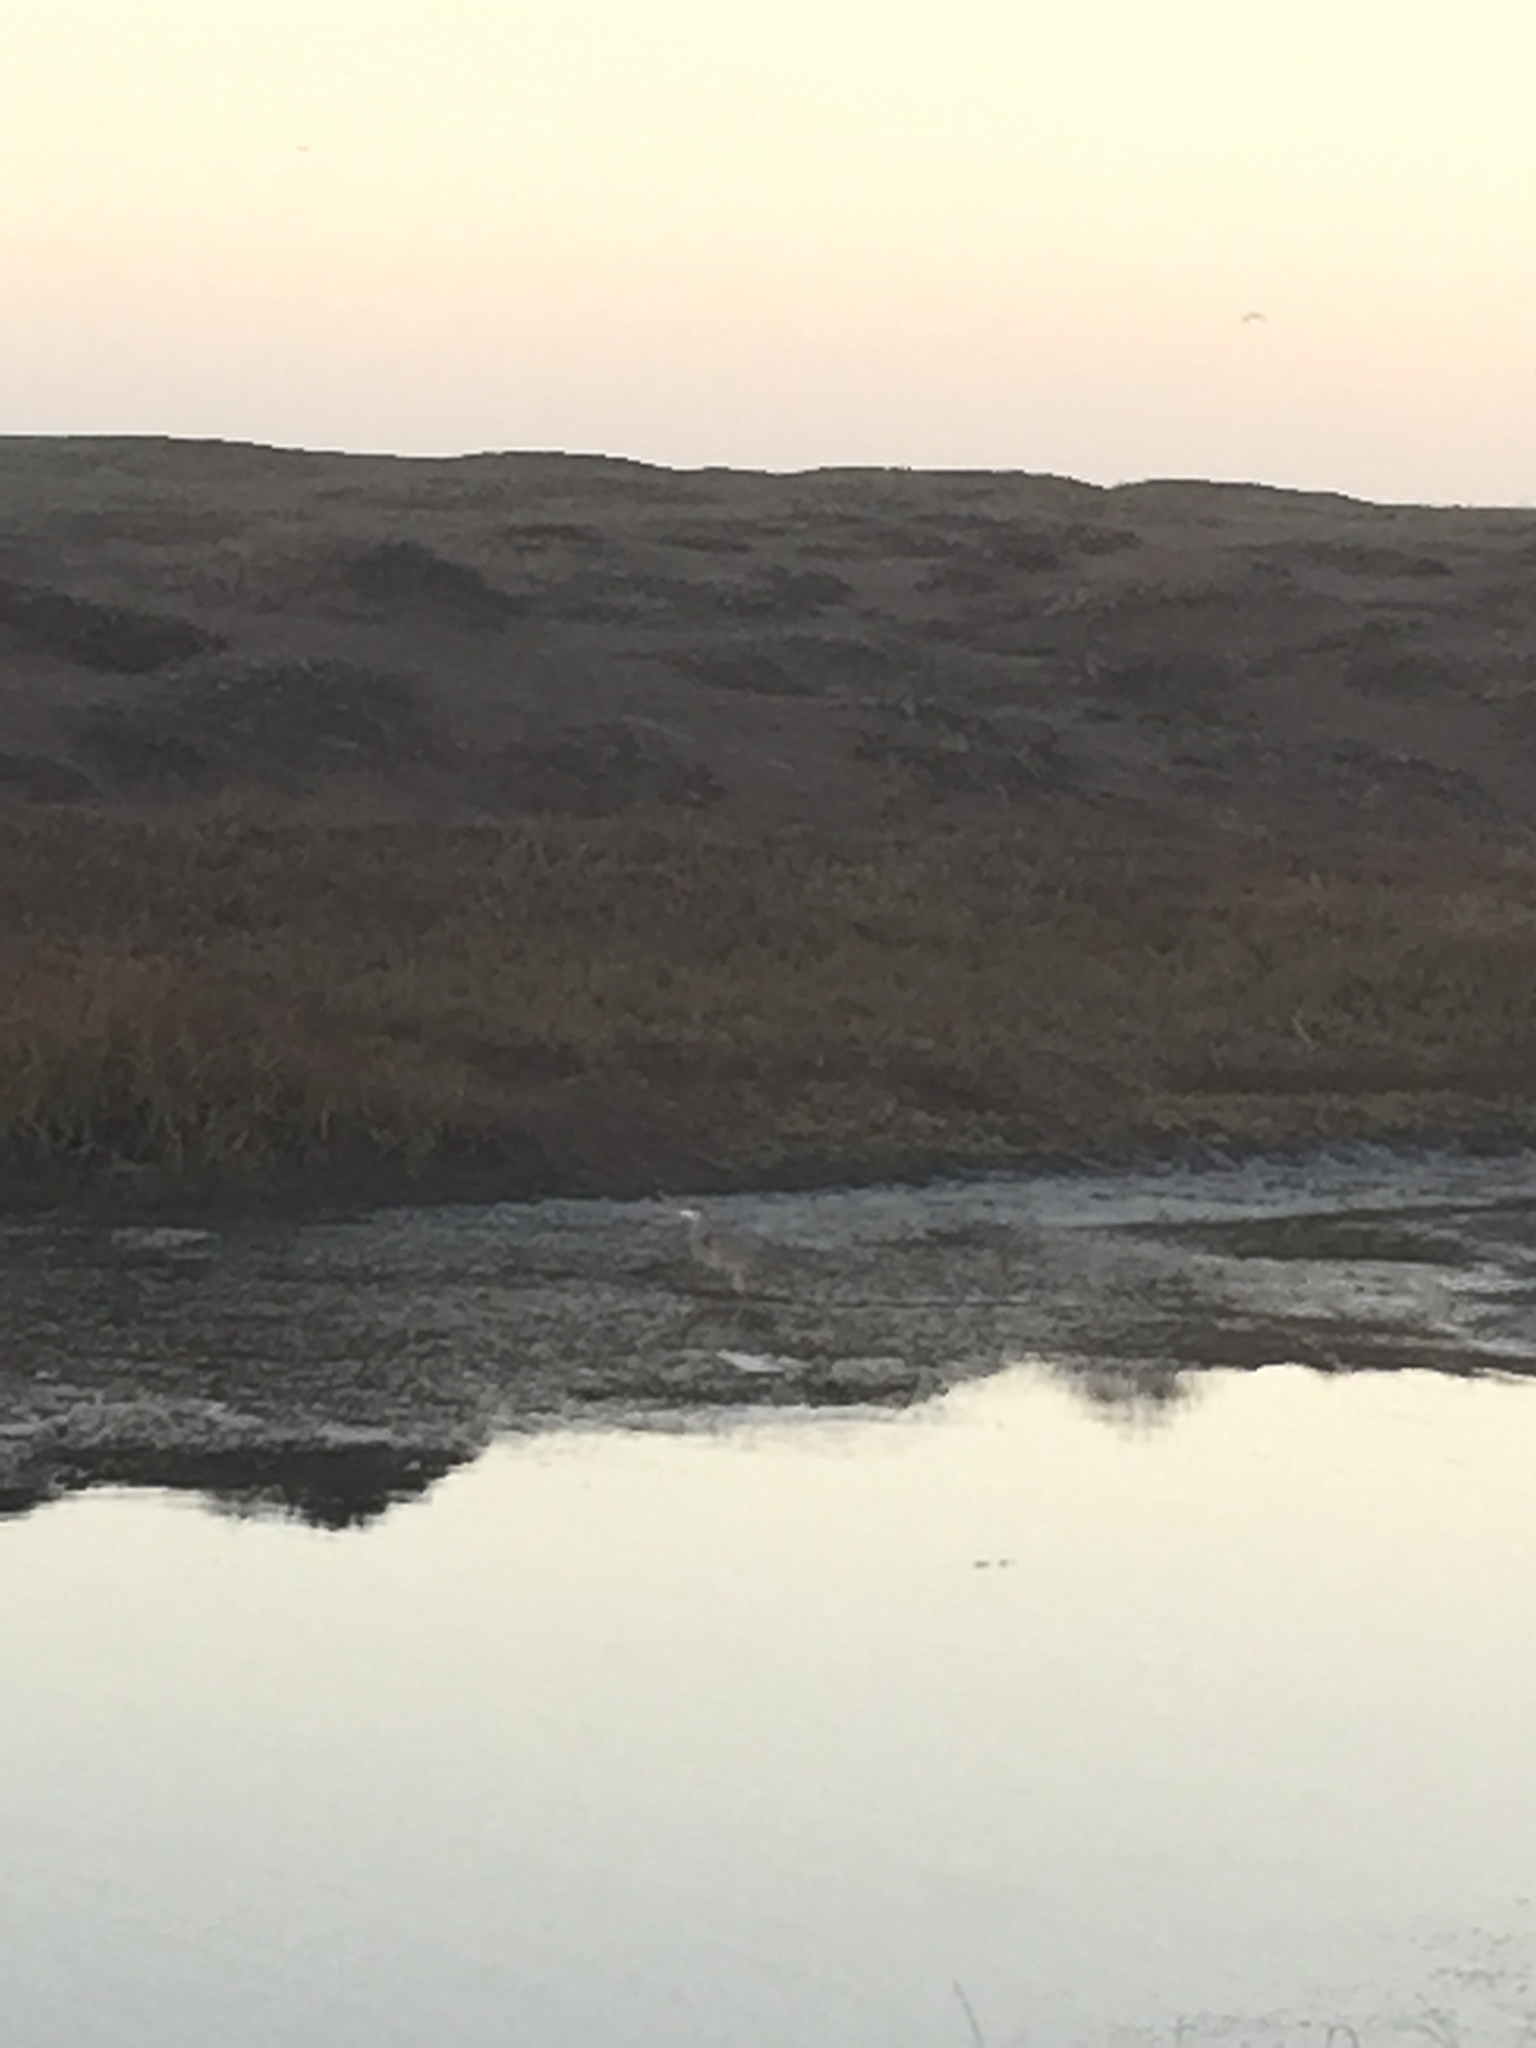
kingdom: Animalia
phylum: Chordata
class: Aves
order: Pelecaniformes
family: Ardeidae
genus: Ardea
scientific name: Ardea herodias
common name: Great blue heron
